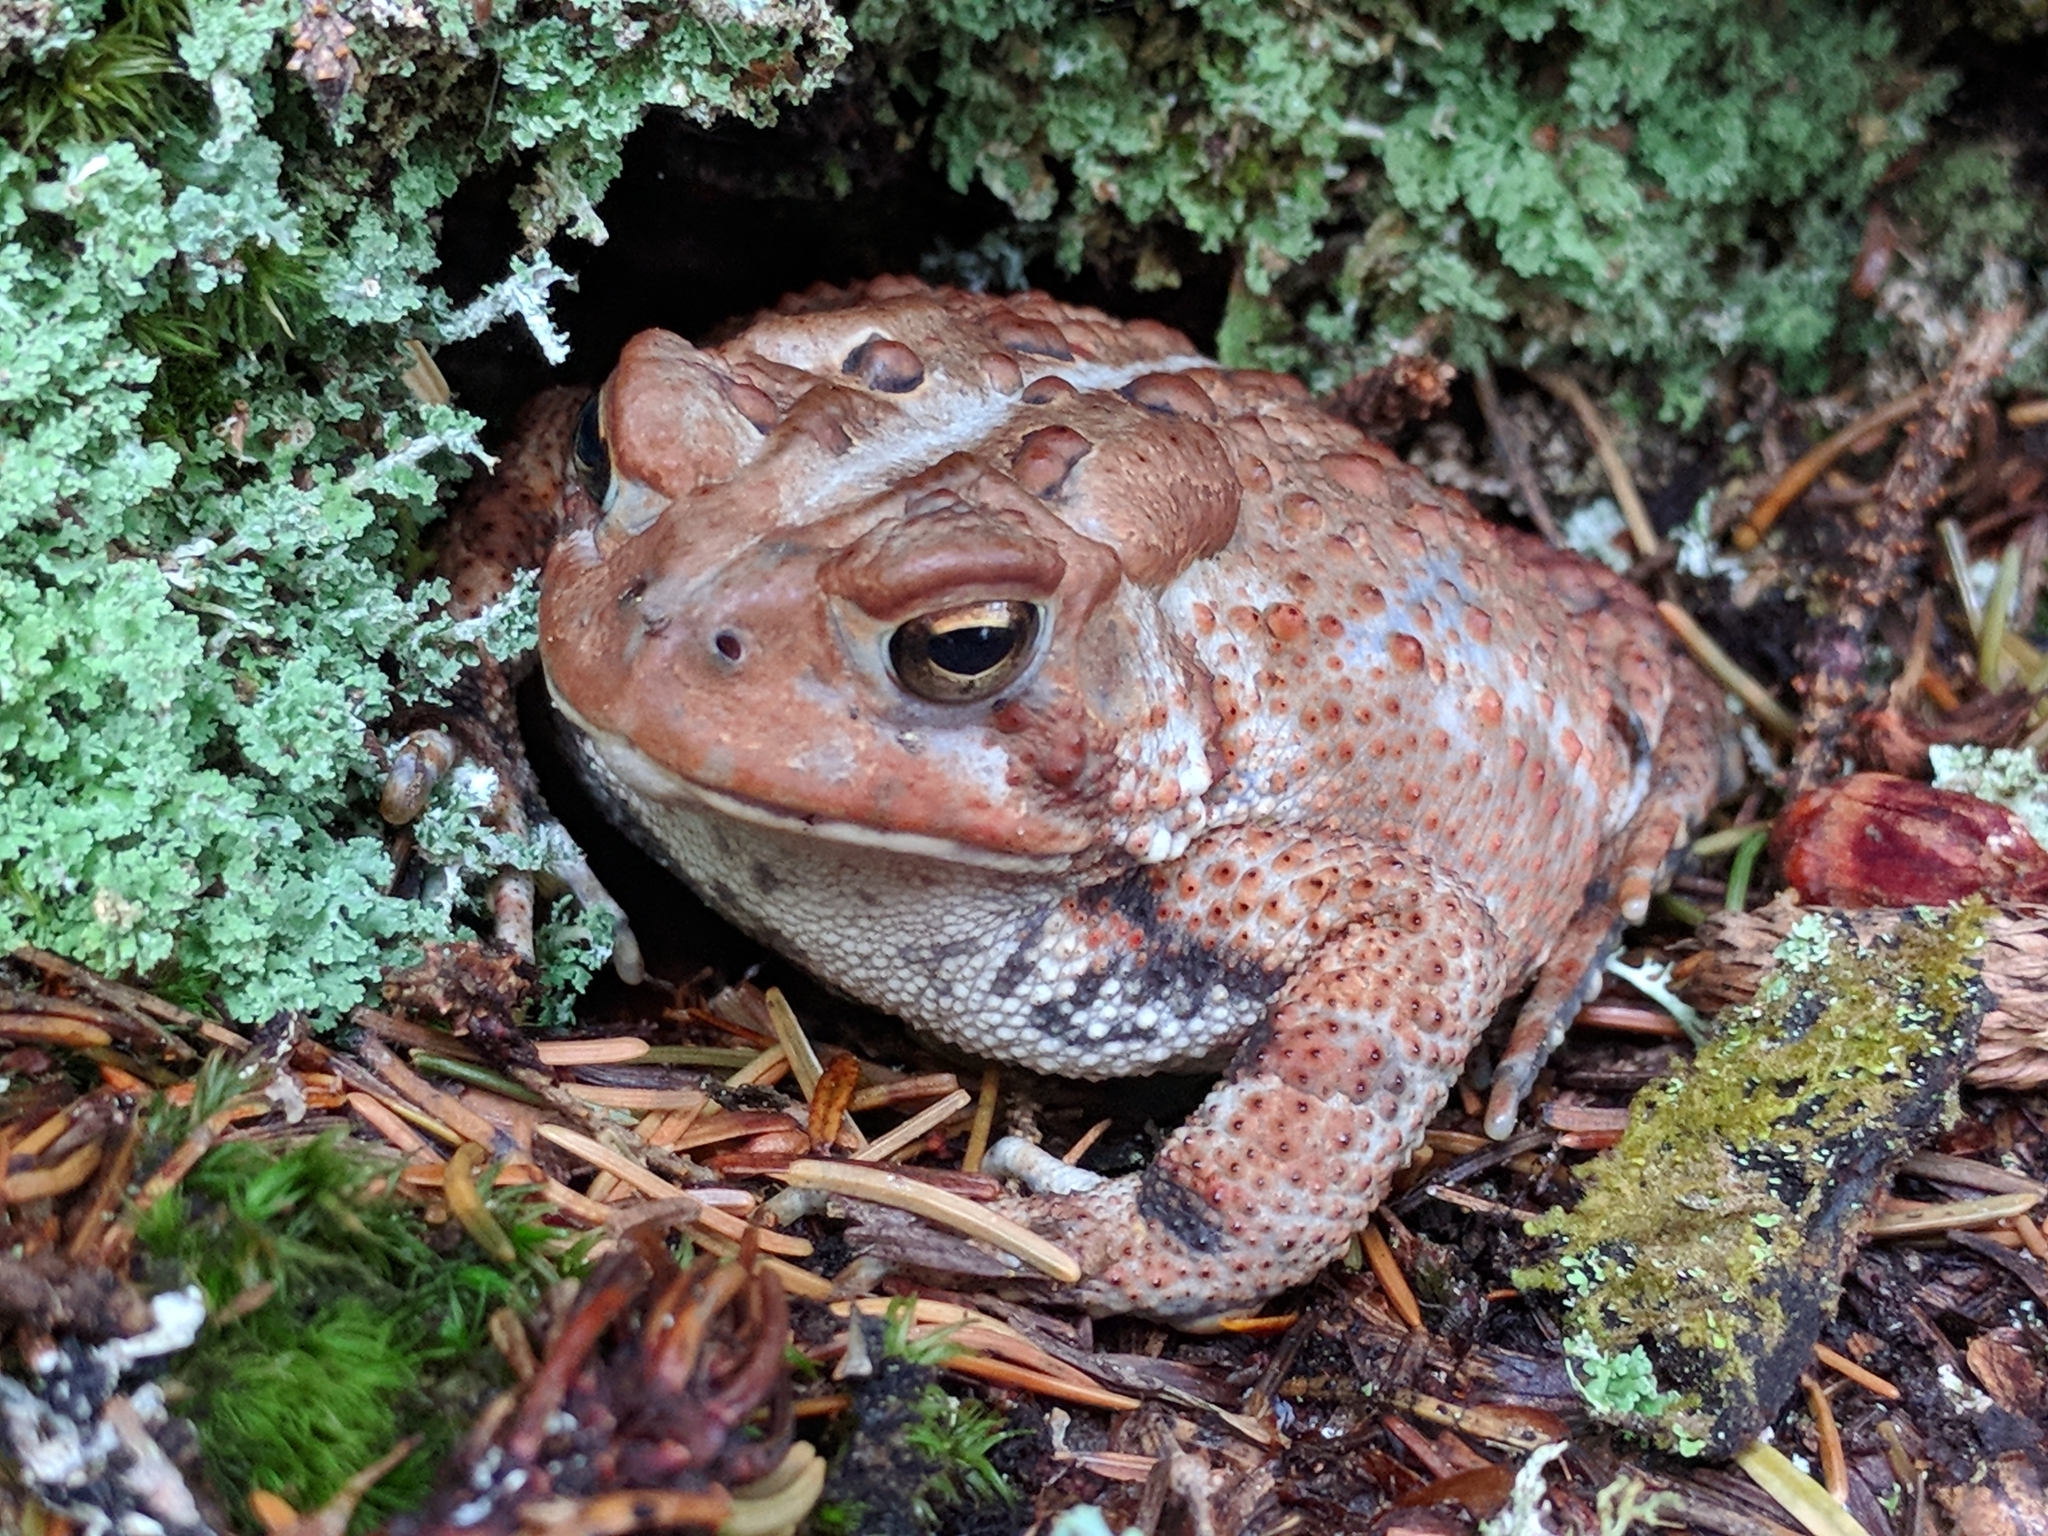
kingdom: Animalia
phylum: Chordata
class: Amphibia
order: Anura
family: Bufonidae
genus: Anaxyrus
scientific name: Anaxyrus americanus
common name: American toad
